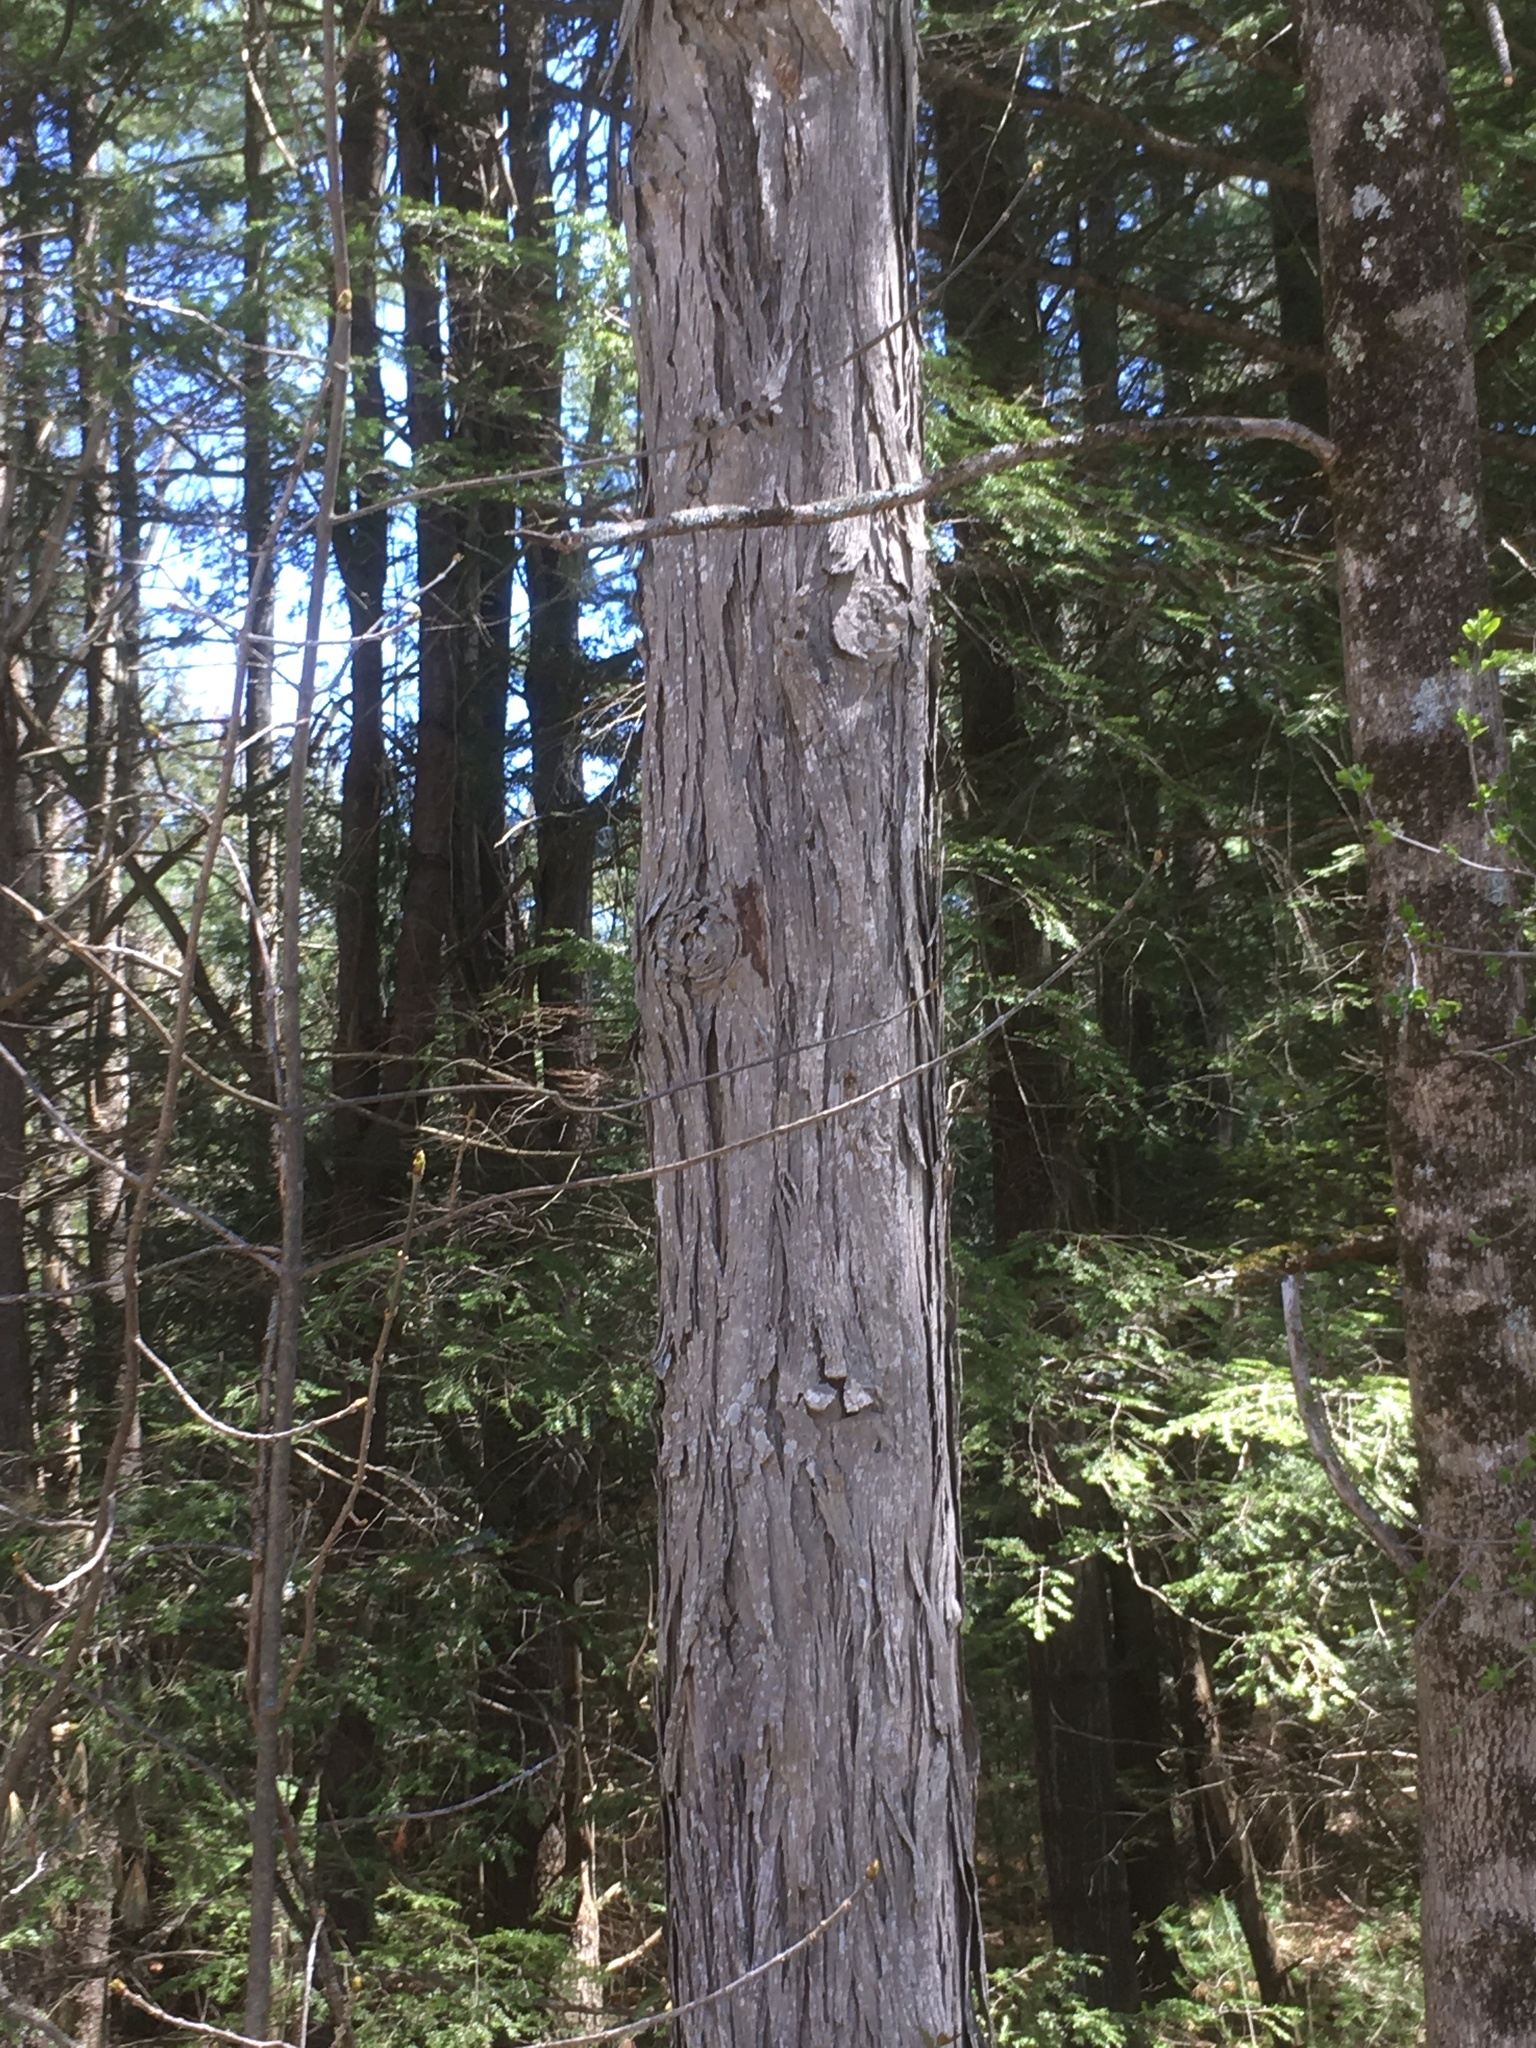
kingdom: Plantae
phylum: Tracheophyta
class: Magnoliopsida
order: Fagales
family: Juglandaceae
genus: Carya
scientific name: Carya ovata
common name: Shagbark hickory
